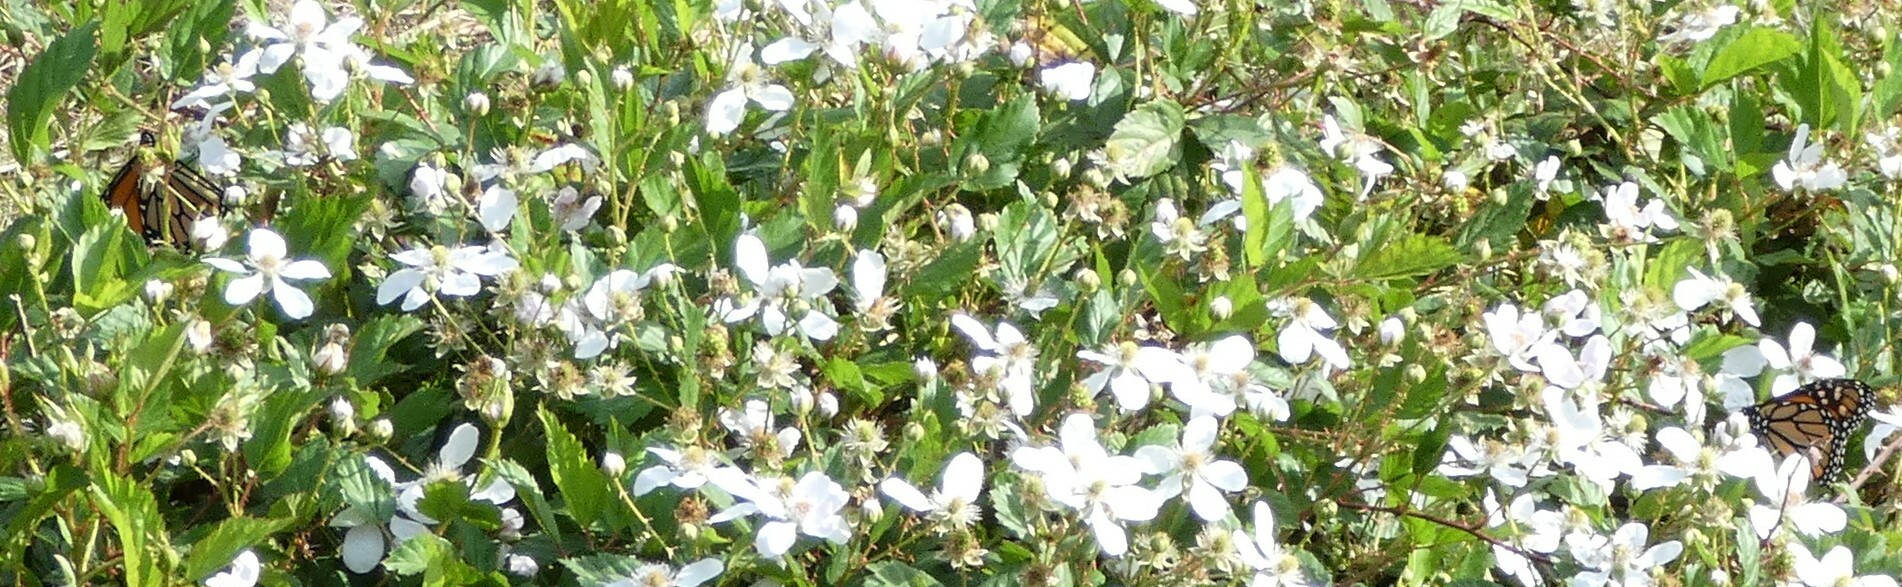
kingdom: Animalia
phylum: Arthropoda
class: Insecta
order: Lepidoptera
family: Nymphalidae
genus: Danaus
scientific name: Danaus plexippus
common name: Monarch
